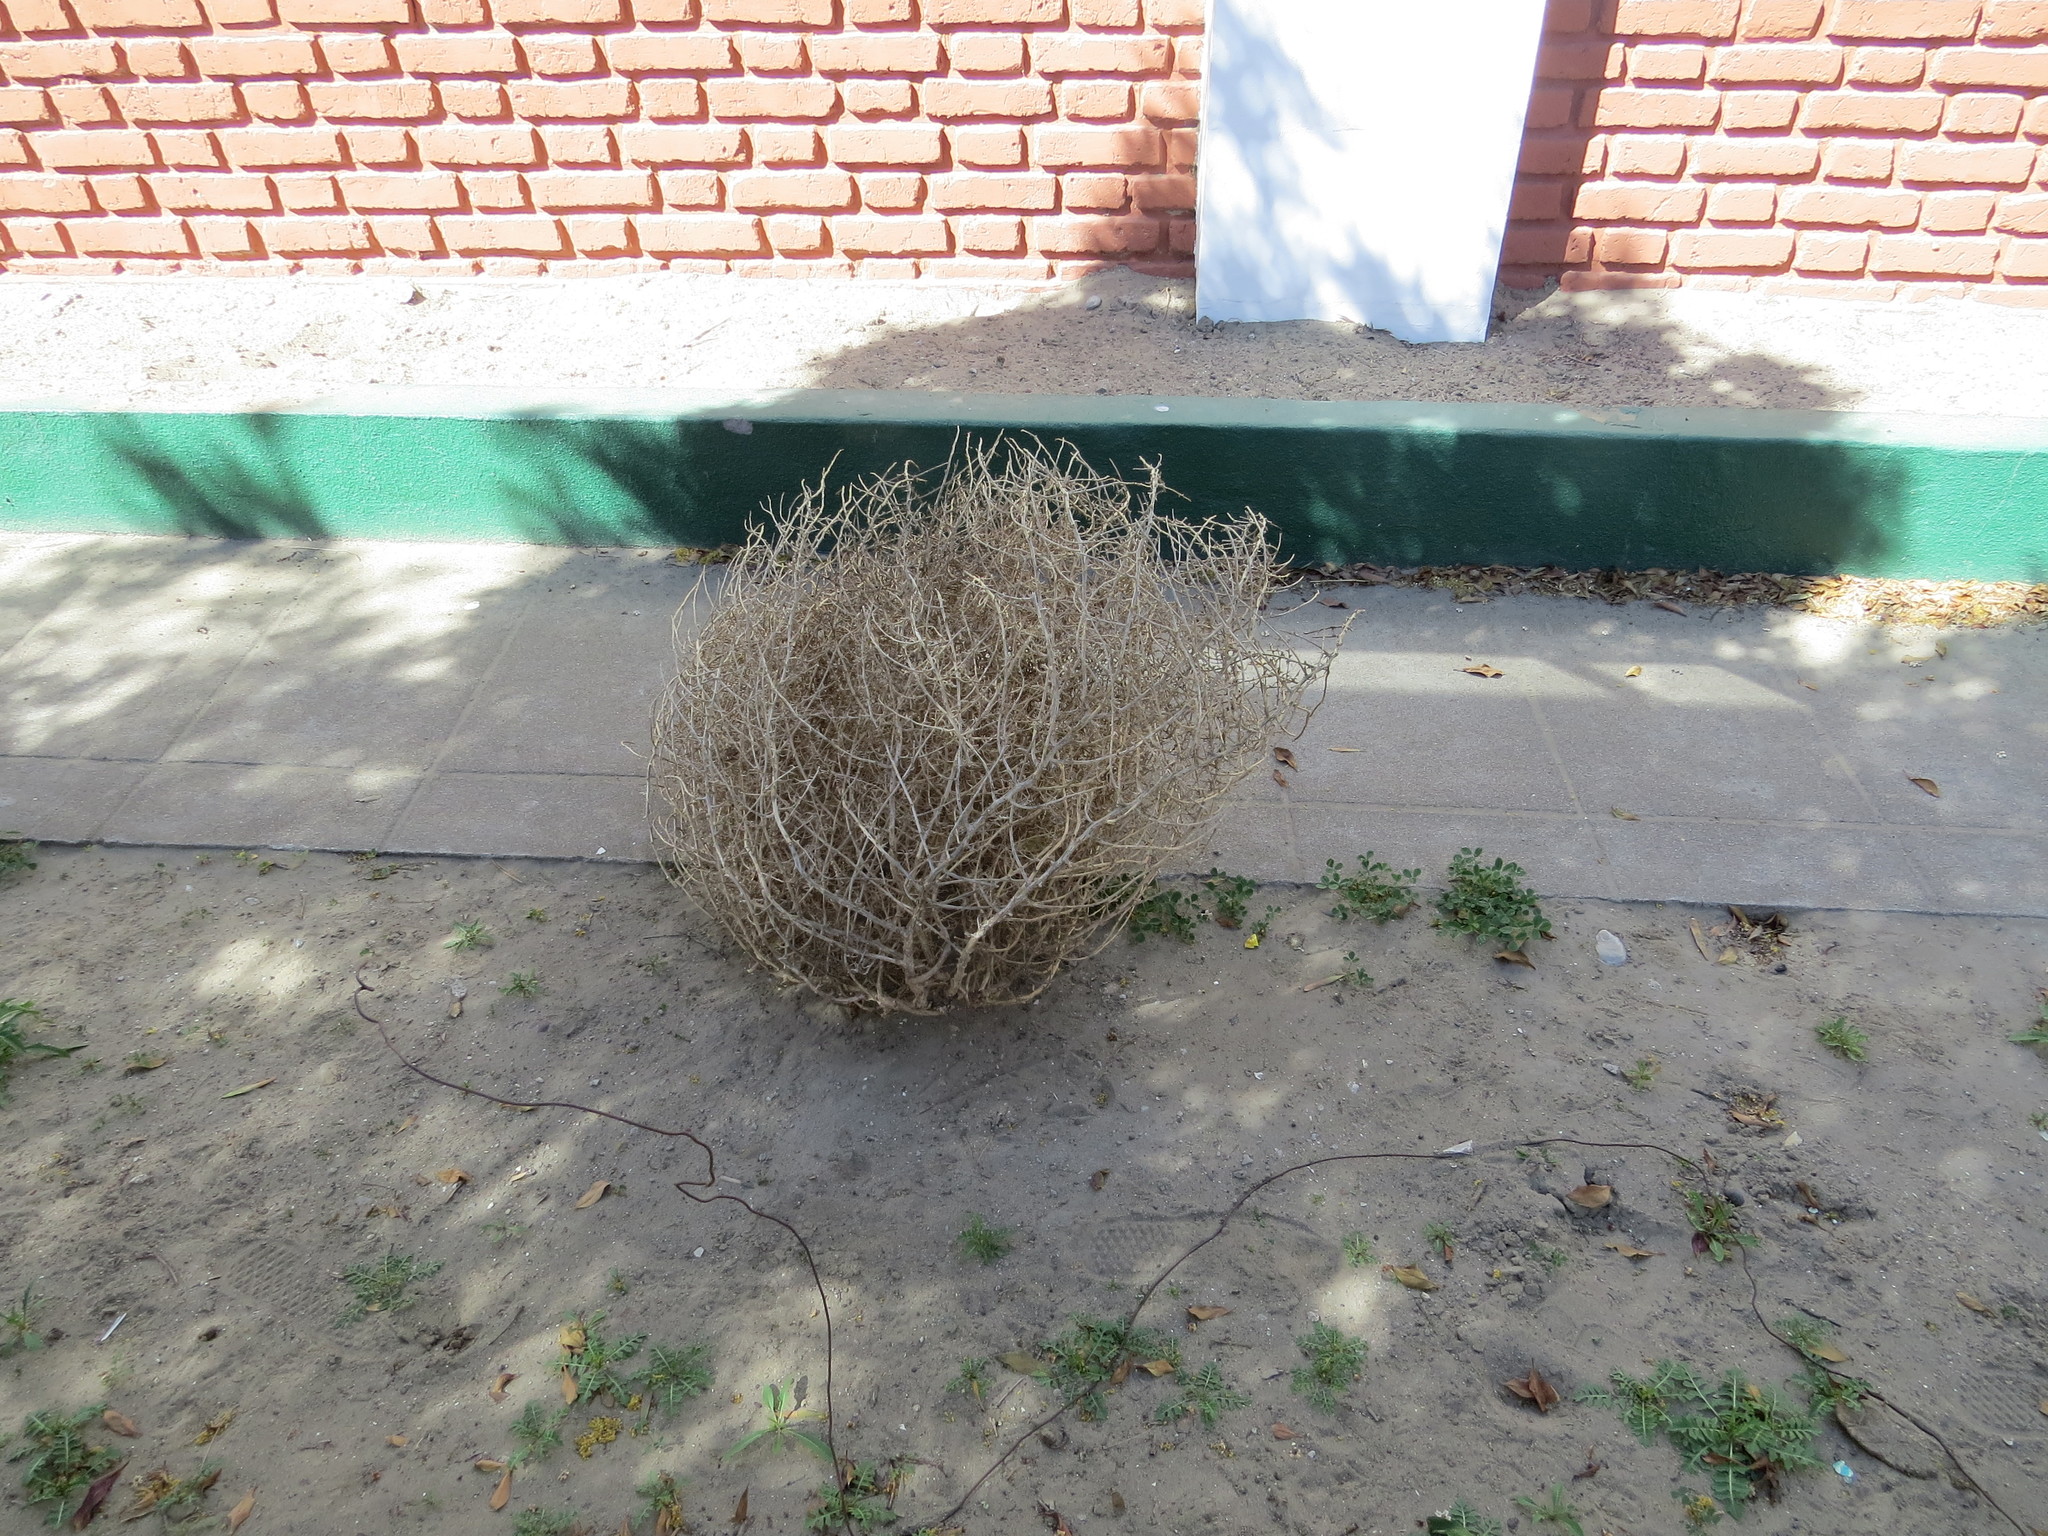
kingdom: Plantae
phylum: Tracheophyta
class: Magnoliopsida
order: Caryophyllales
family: Amaranthaceae
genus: Salsola
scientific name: Salsola kali
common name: Saltwort
